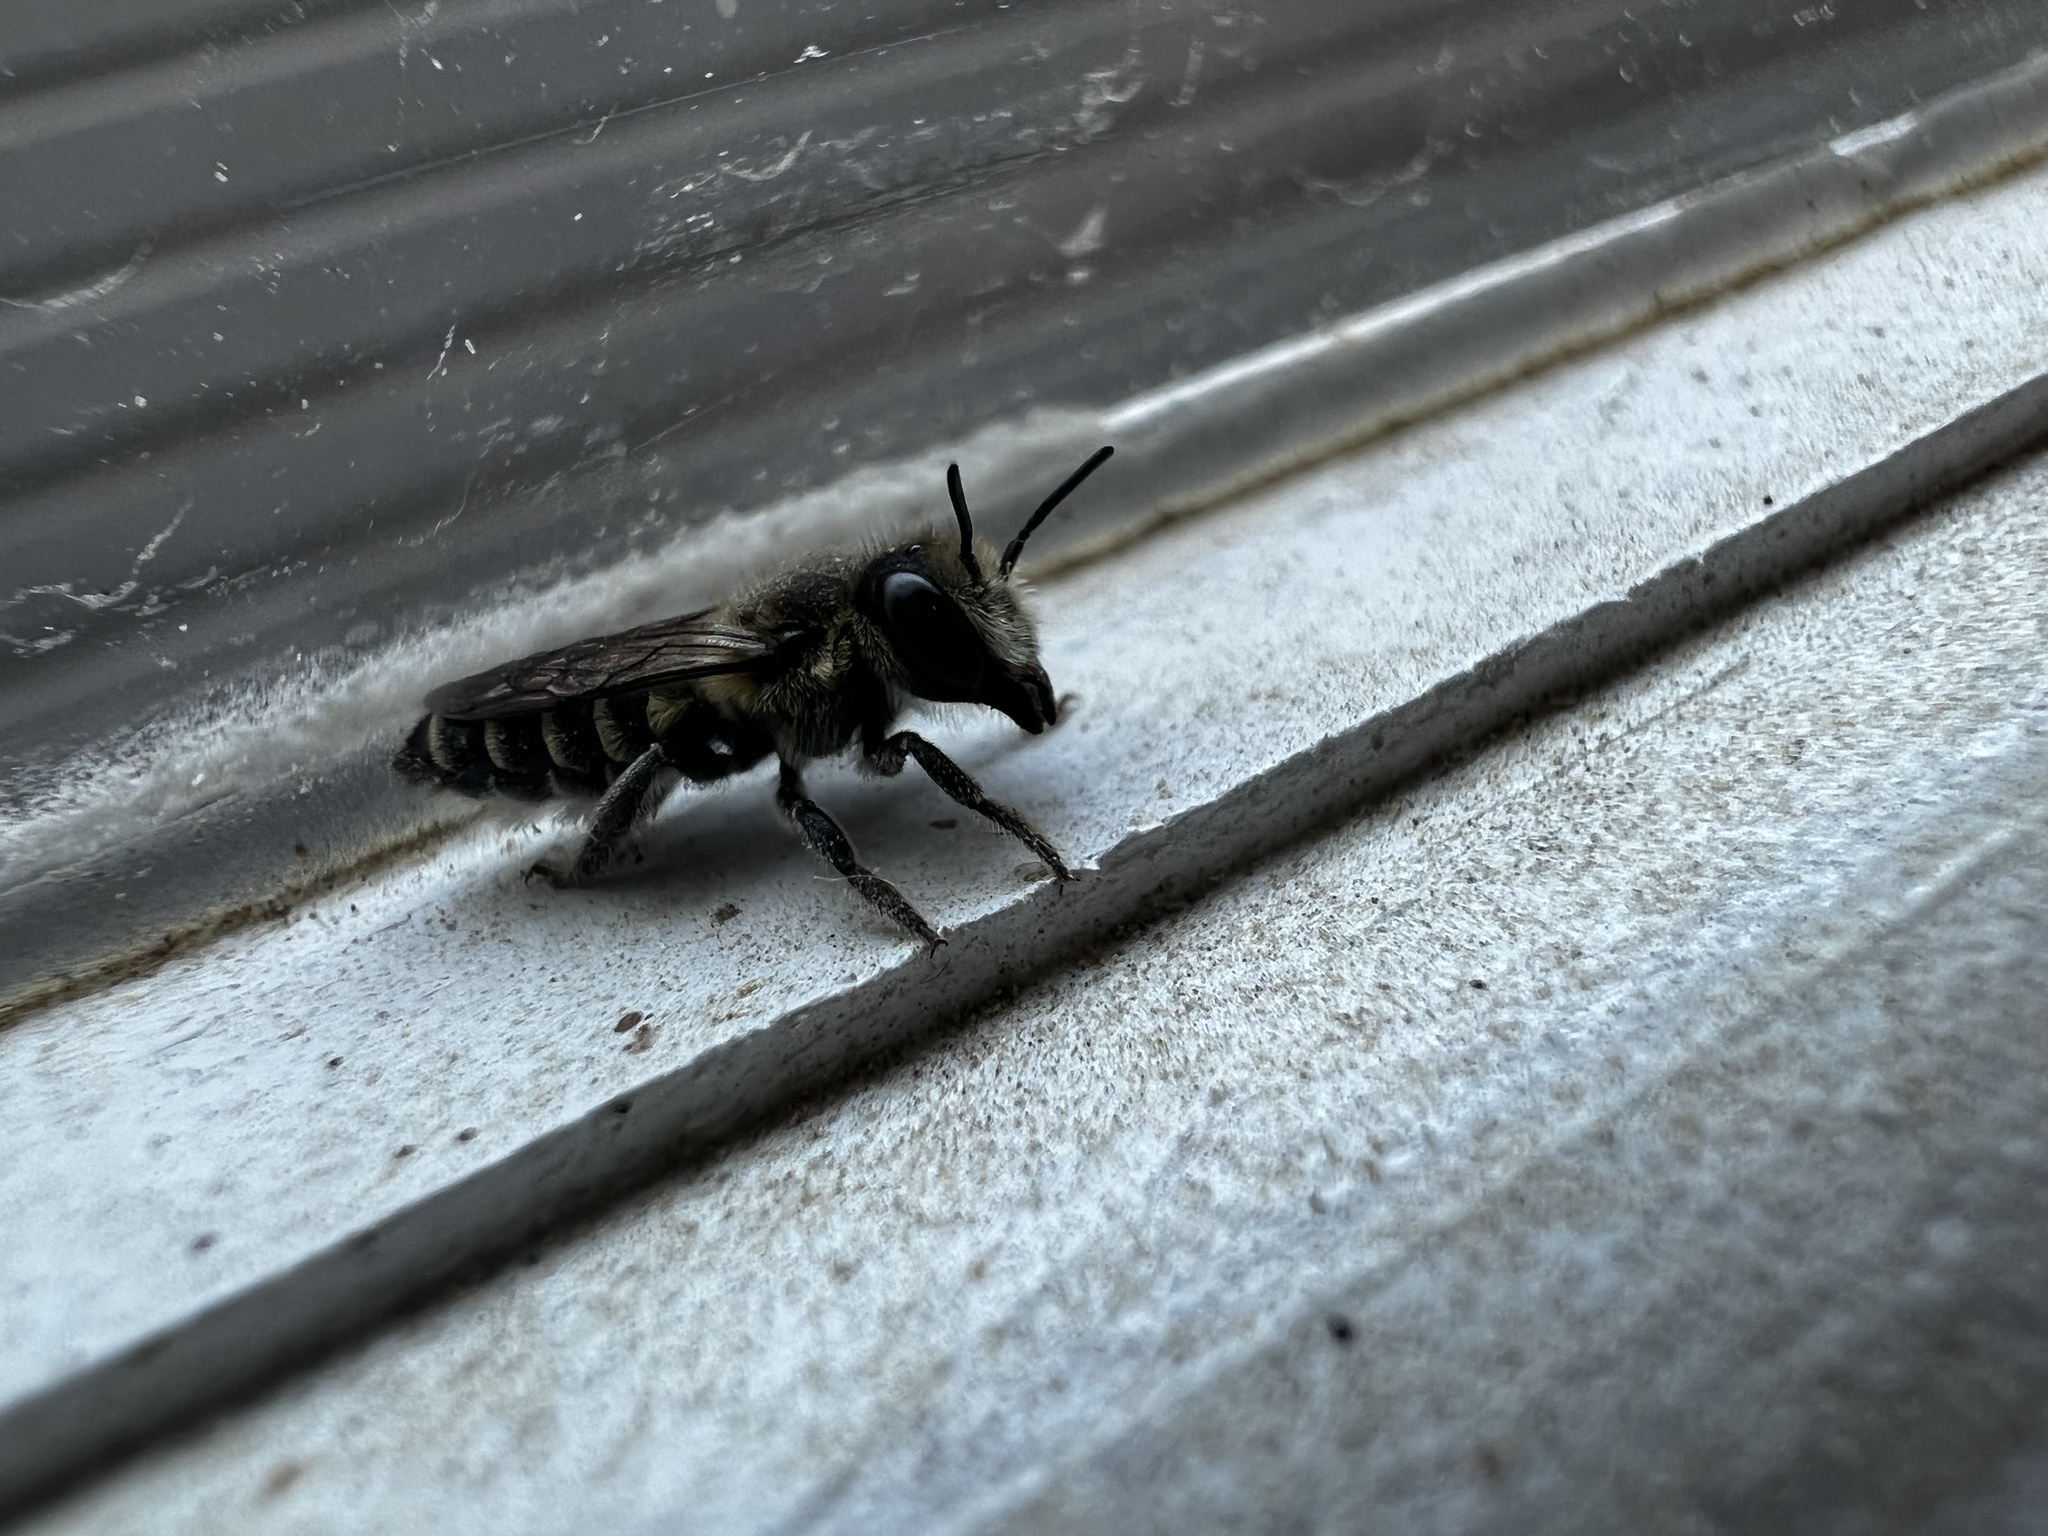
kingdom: Animalia
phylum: Arthropoda
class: Insecta
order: Hymenoptera
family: Megachilidae
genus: Megachile
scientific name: Megachile rotundata
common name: Alfalfa leafcutting bee
